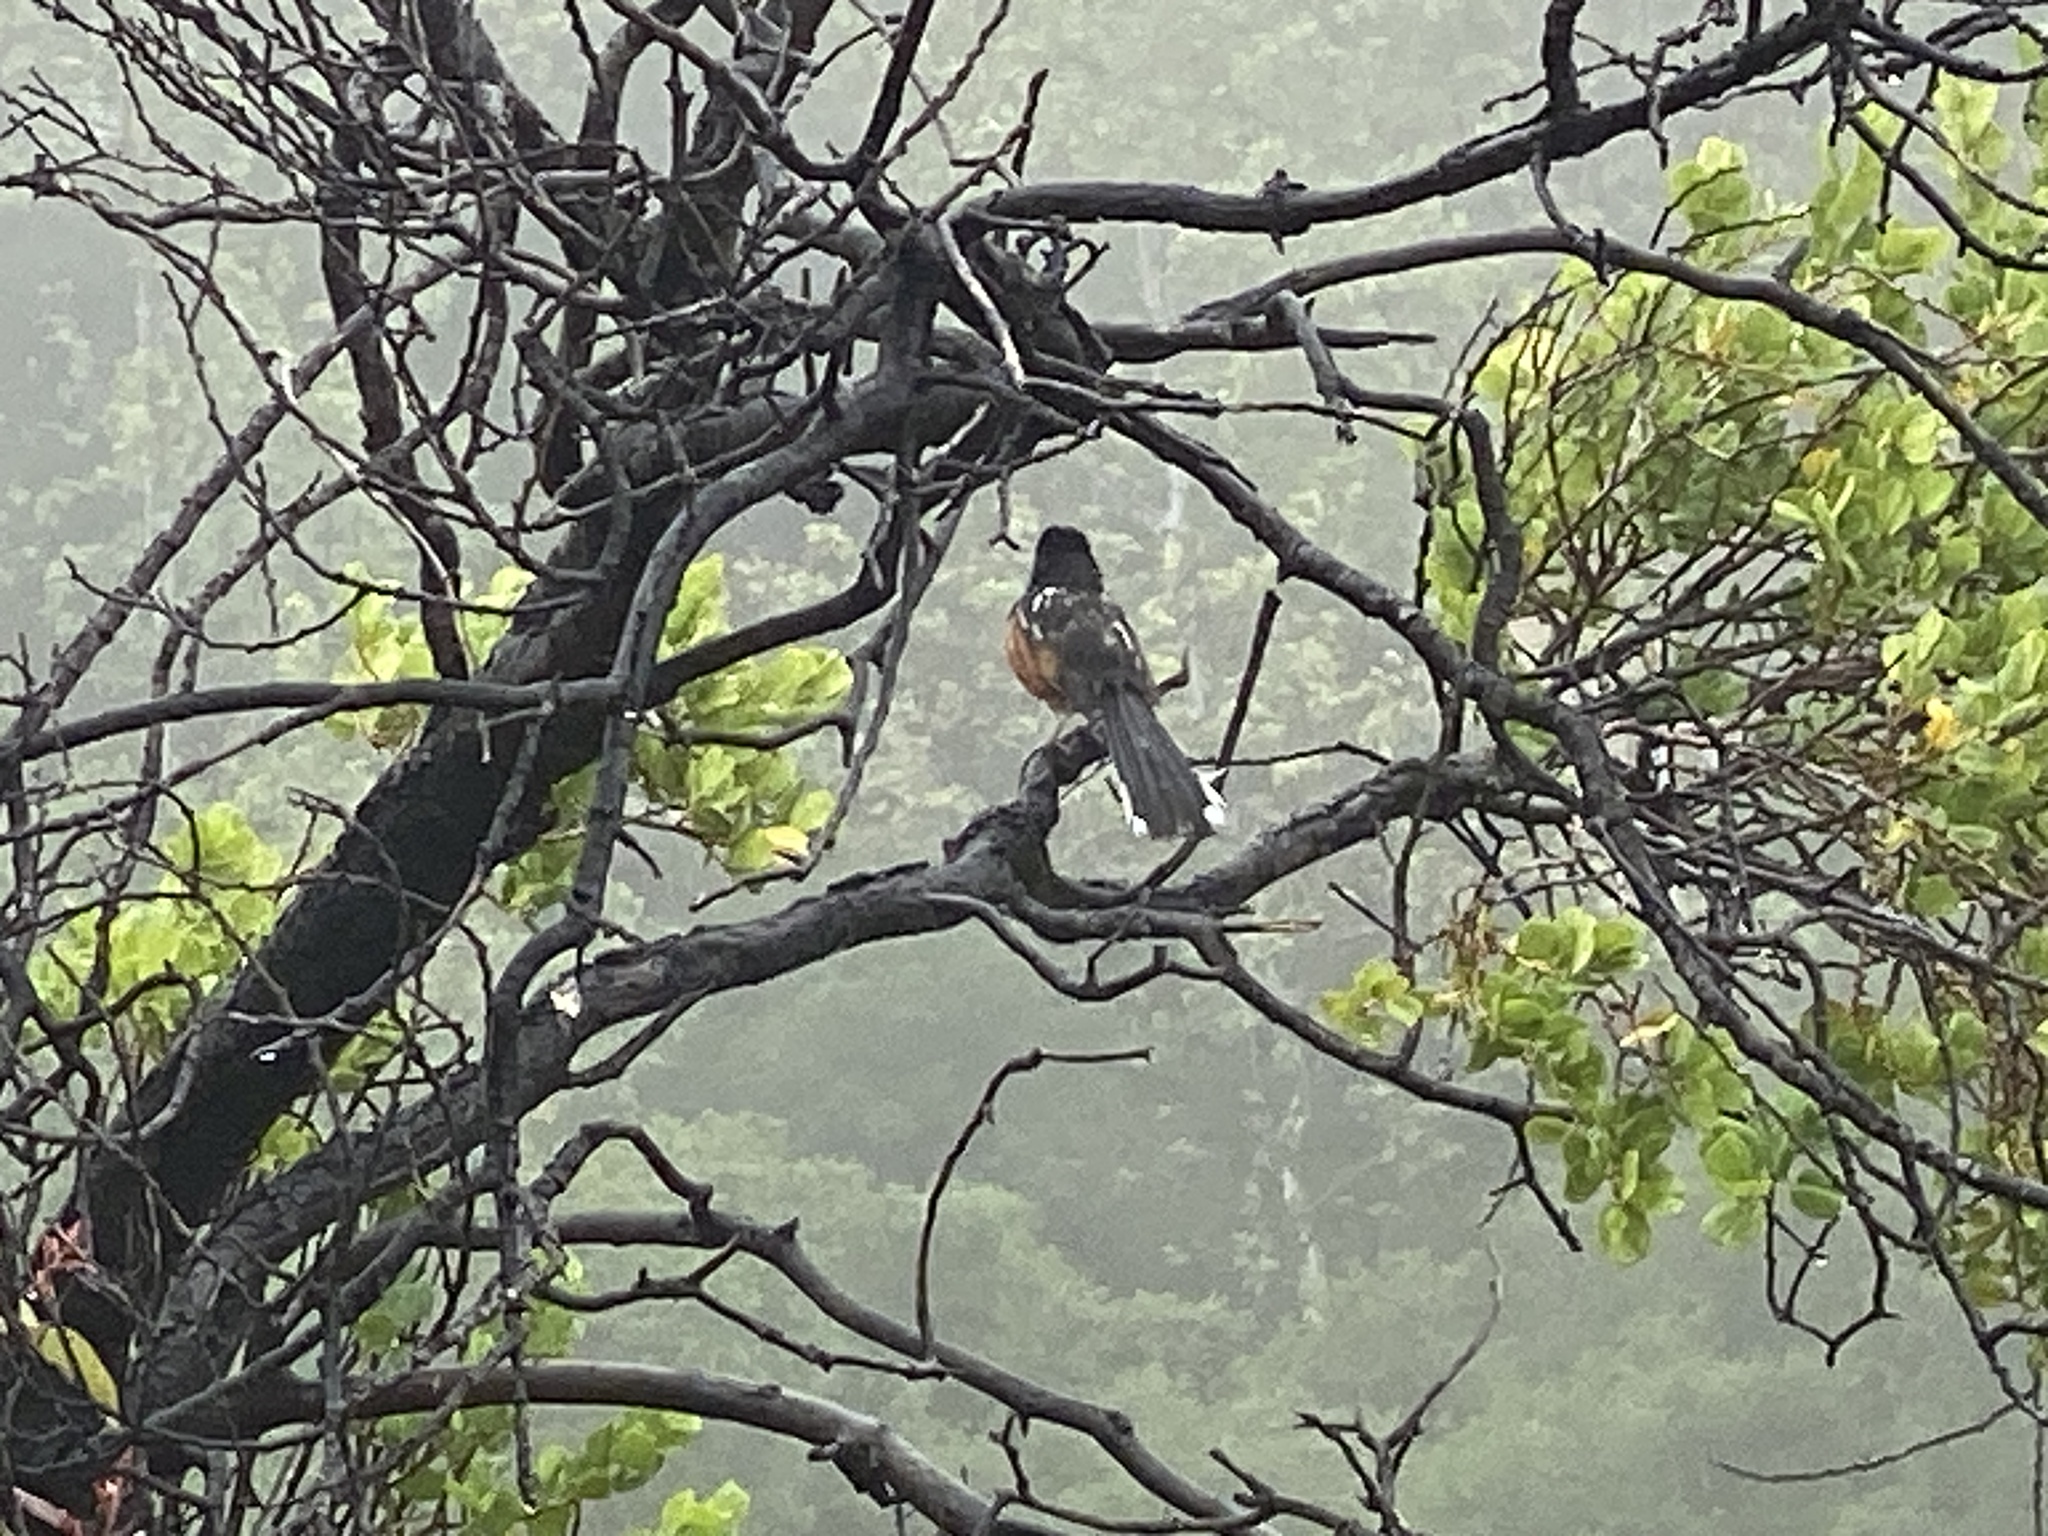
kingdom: Animalia
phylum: Chordata
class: Aves
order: Passeriformes
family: Passerellidae
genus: Pipilo
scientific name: Pipilo maculatus
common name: Spotted towhee
